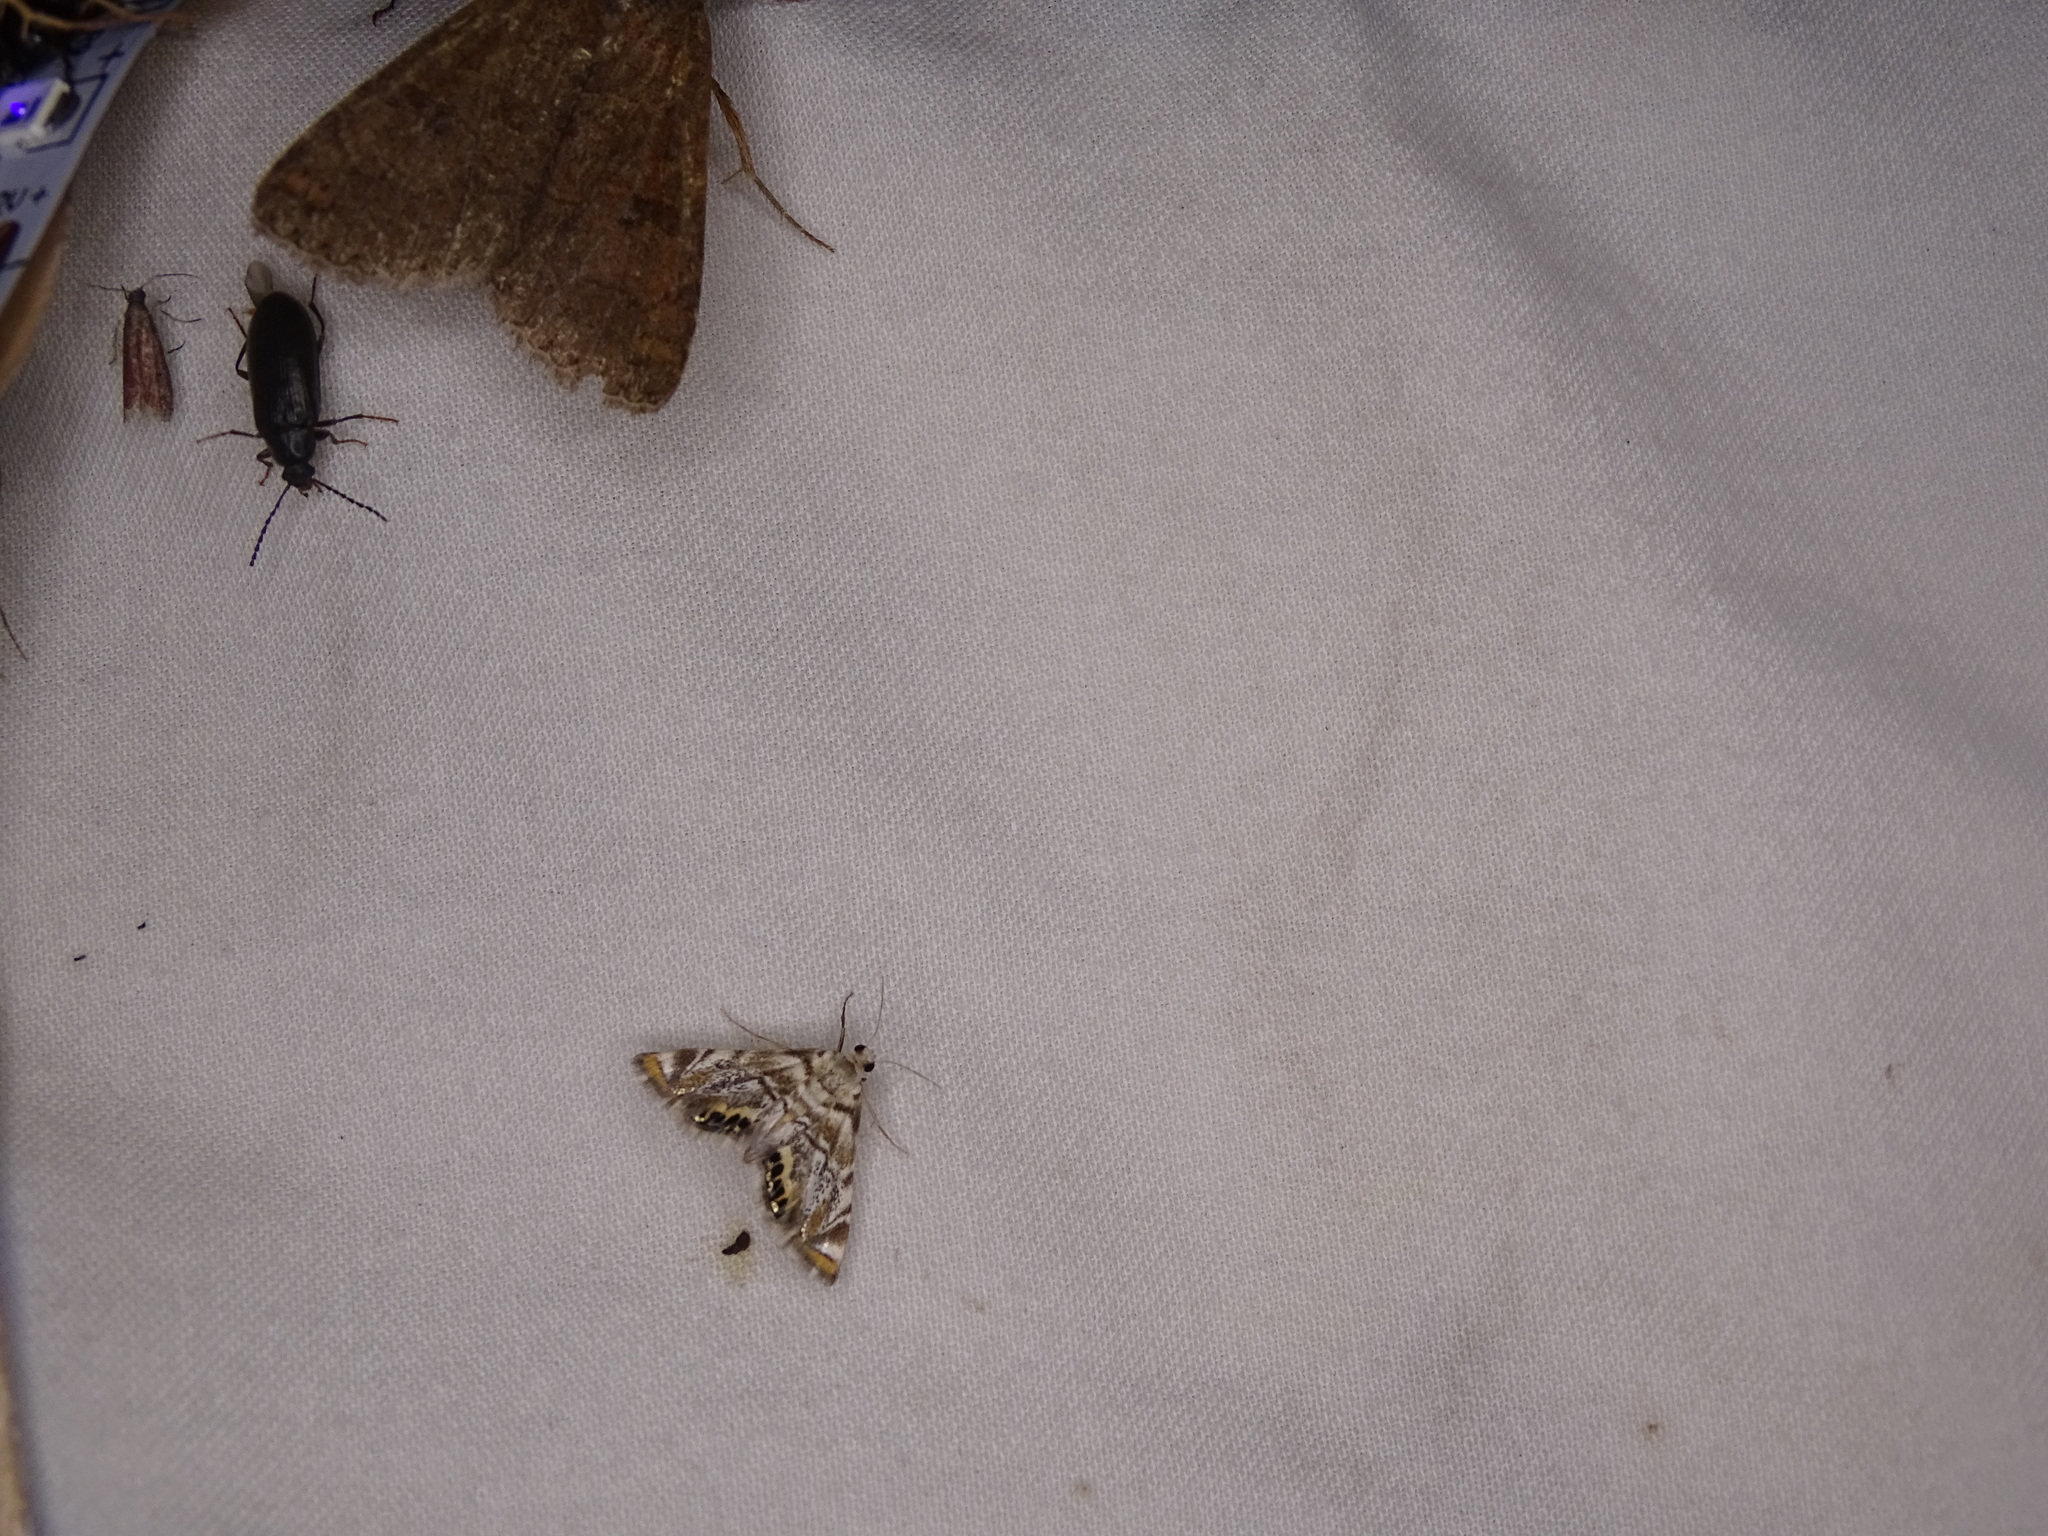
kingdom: Animalia
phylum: Arthropoda
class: Insecta
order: Lepidoptera
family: Crambidae
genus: Eoparargyractis
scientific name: Eoparargyractis irroratalis
